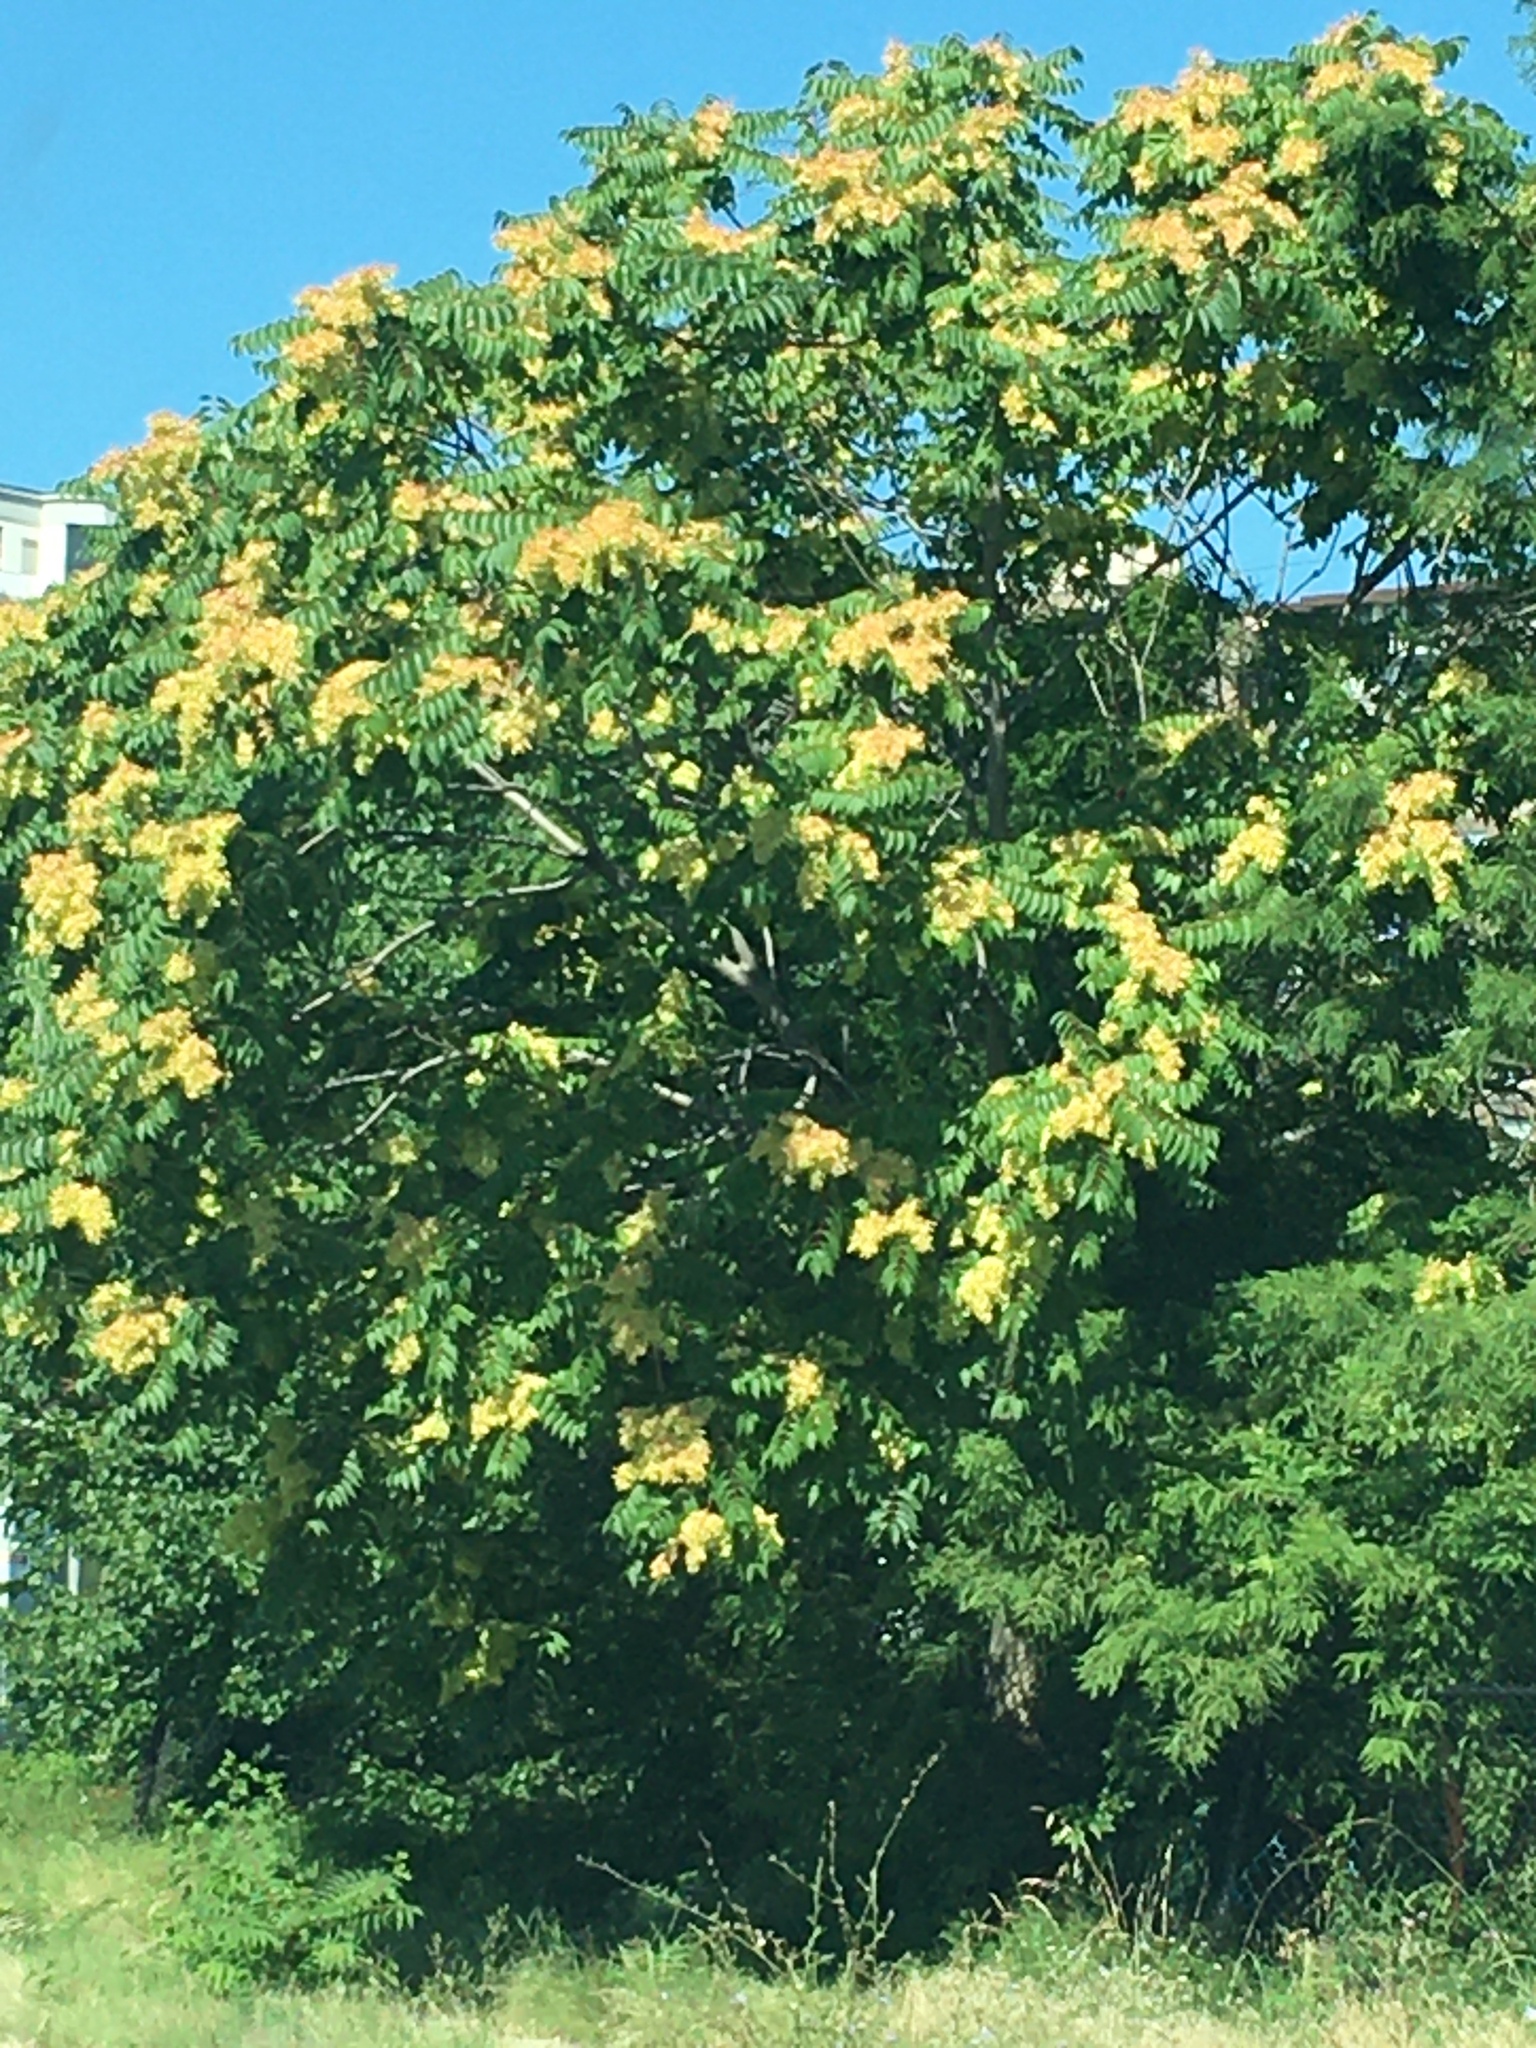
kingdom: Plantae
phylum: Tracheophyta
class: Magnoliopsida
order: Sapindales
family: Simaroubaceae
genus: Ailanthus
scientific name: Ailanthus altissima
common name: Tree-of-heaven
